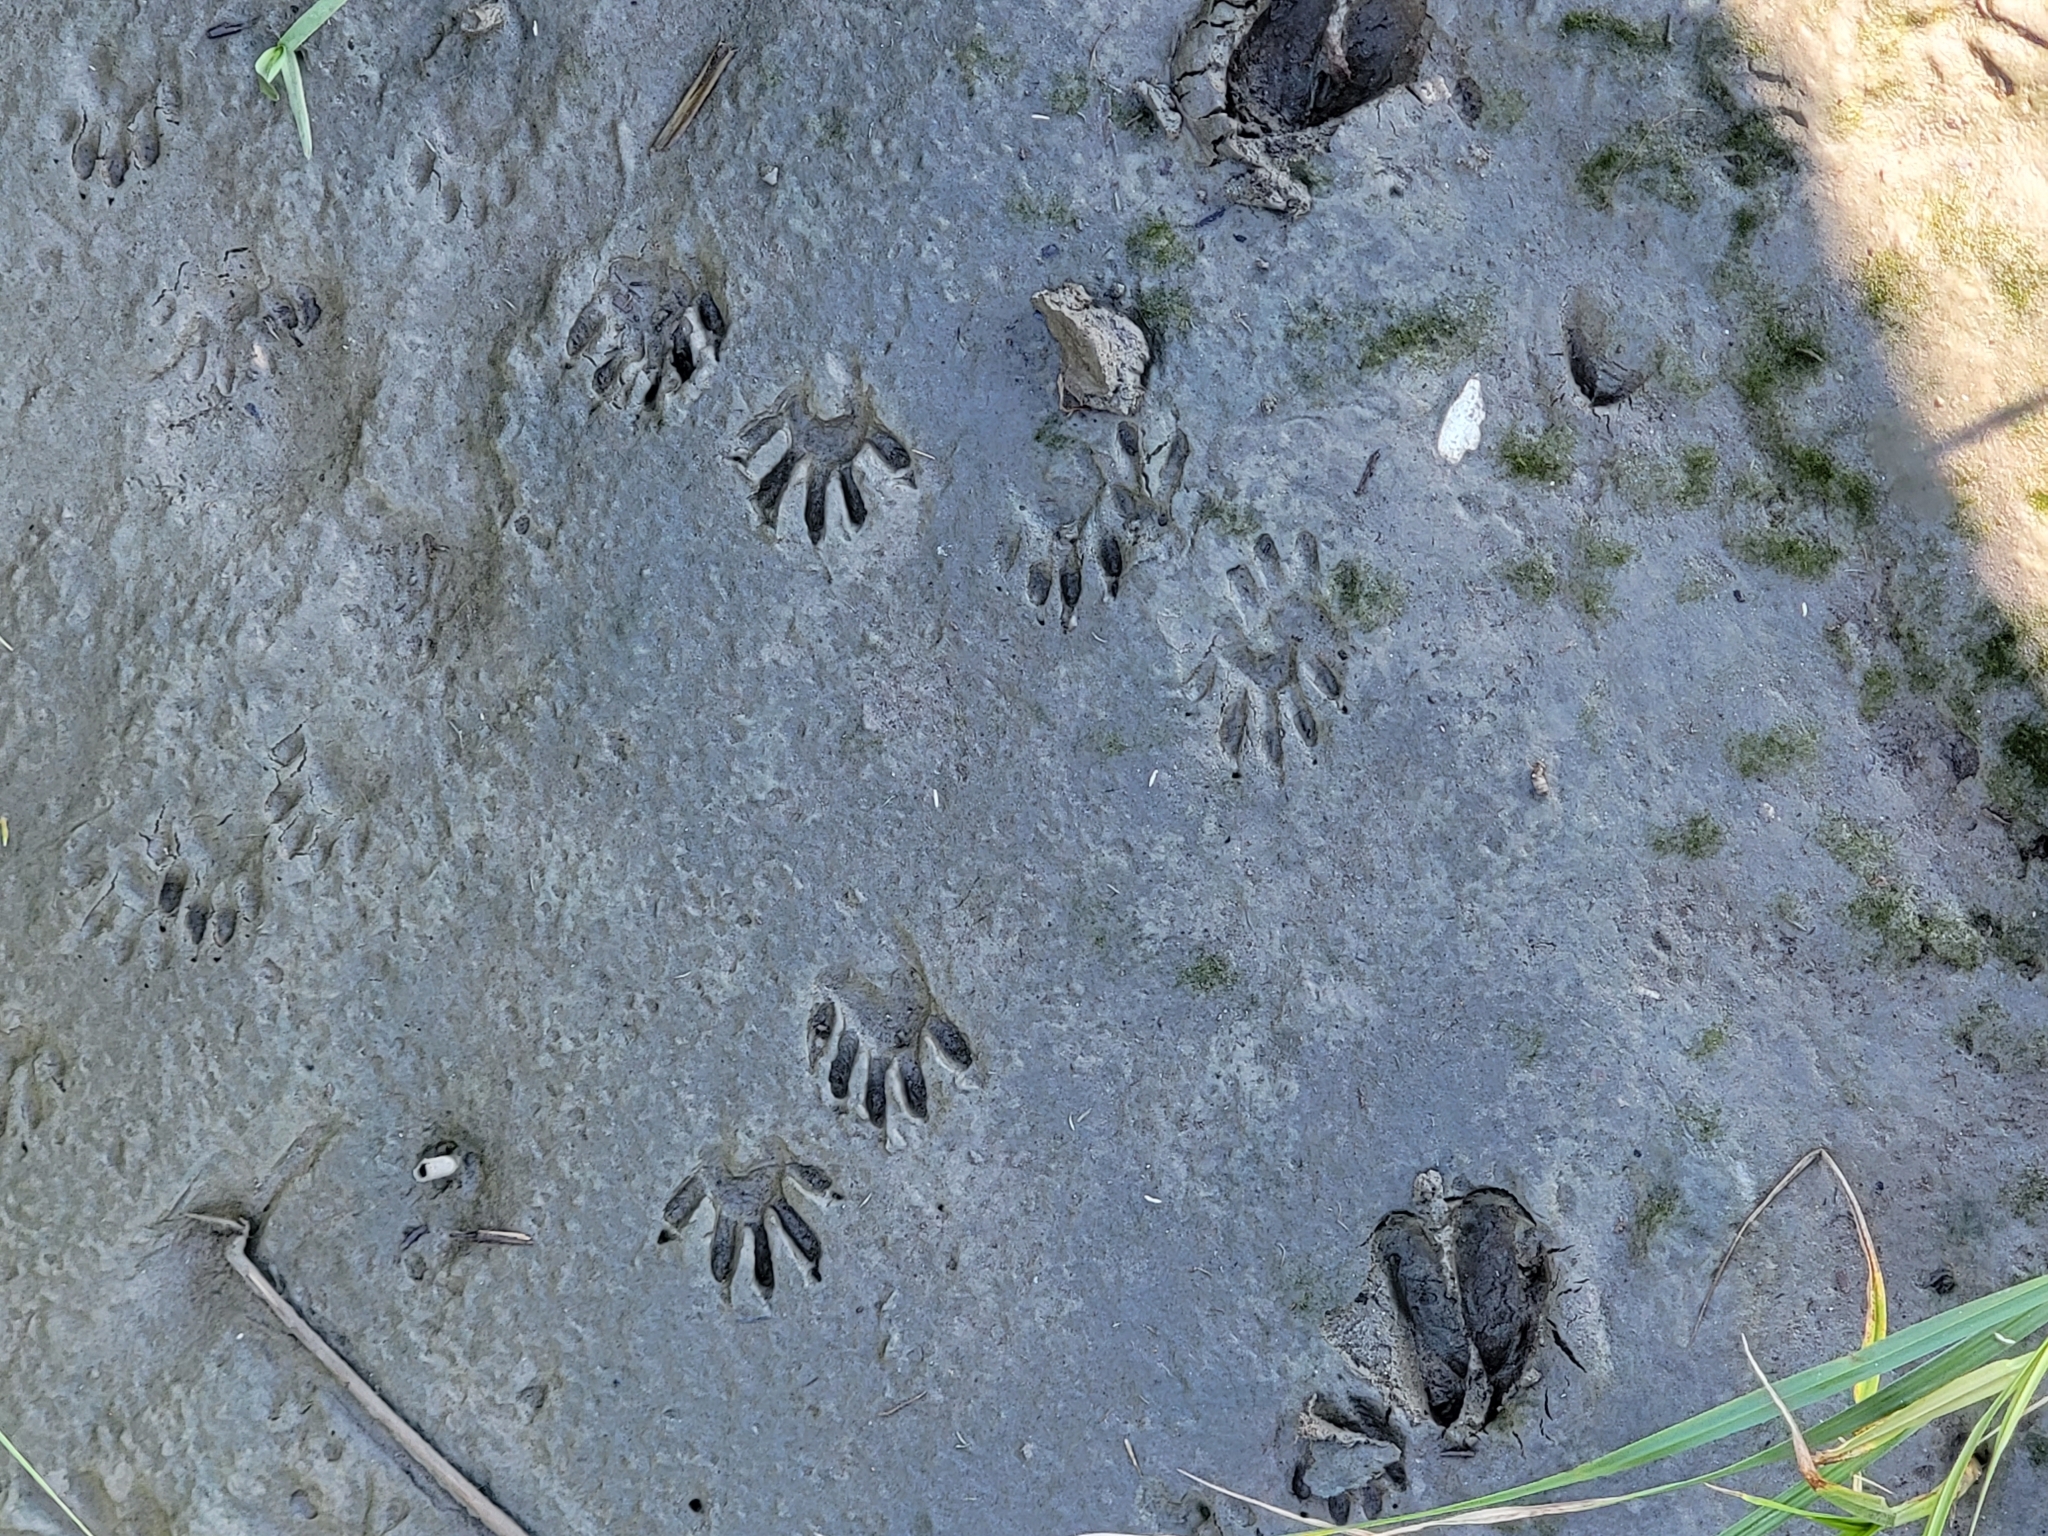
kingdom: Animalia
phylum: Chordata
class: Mammalia
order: Carnivora
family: Procyonidae
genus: Procyon
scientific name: Procyon lotor
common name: Raccoon
